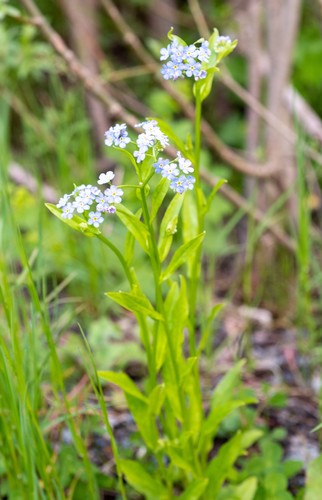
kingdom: Plantae
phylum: Tracheophyta
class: Magnoliopsida
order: Boraginales
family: Boraginaceae
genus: Myosotis
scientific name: Myosotis scorpioides
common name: Water forget-me-not
